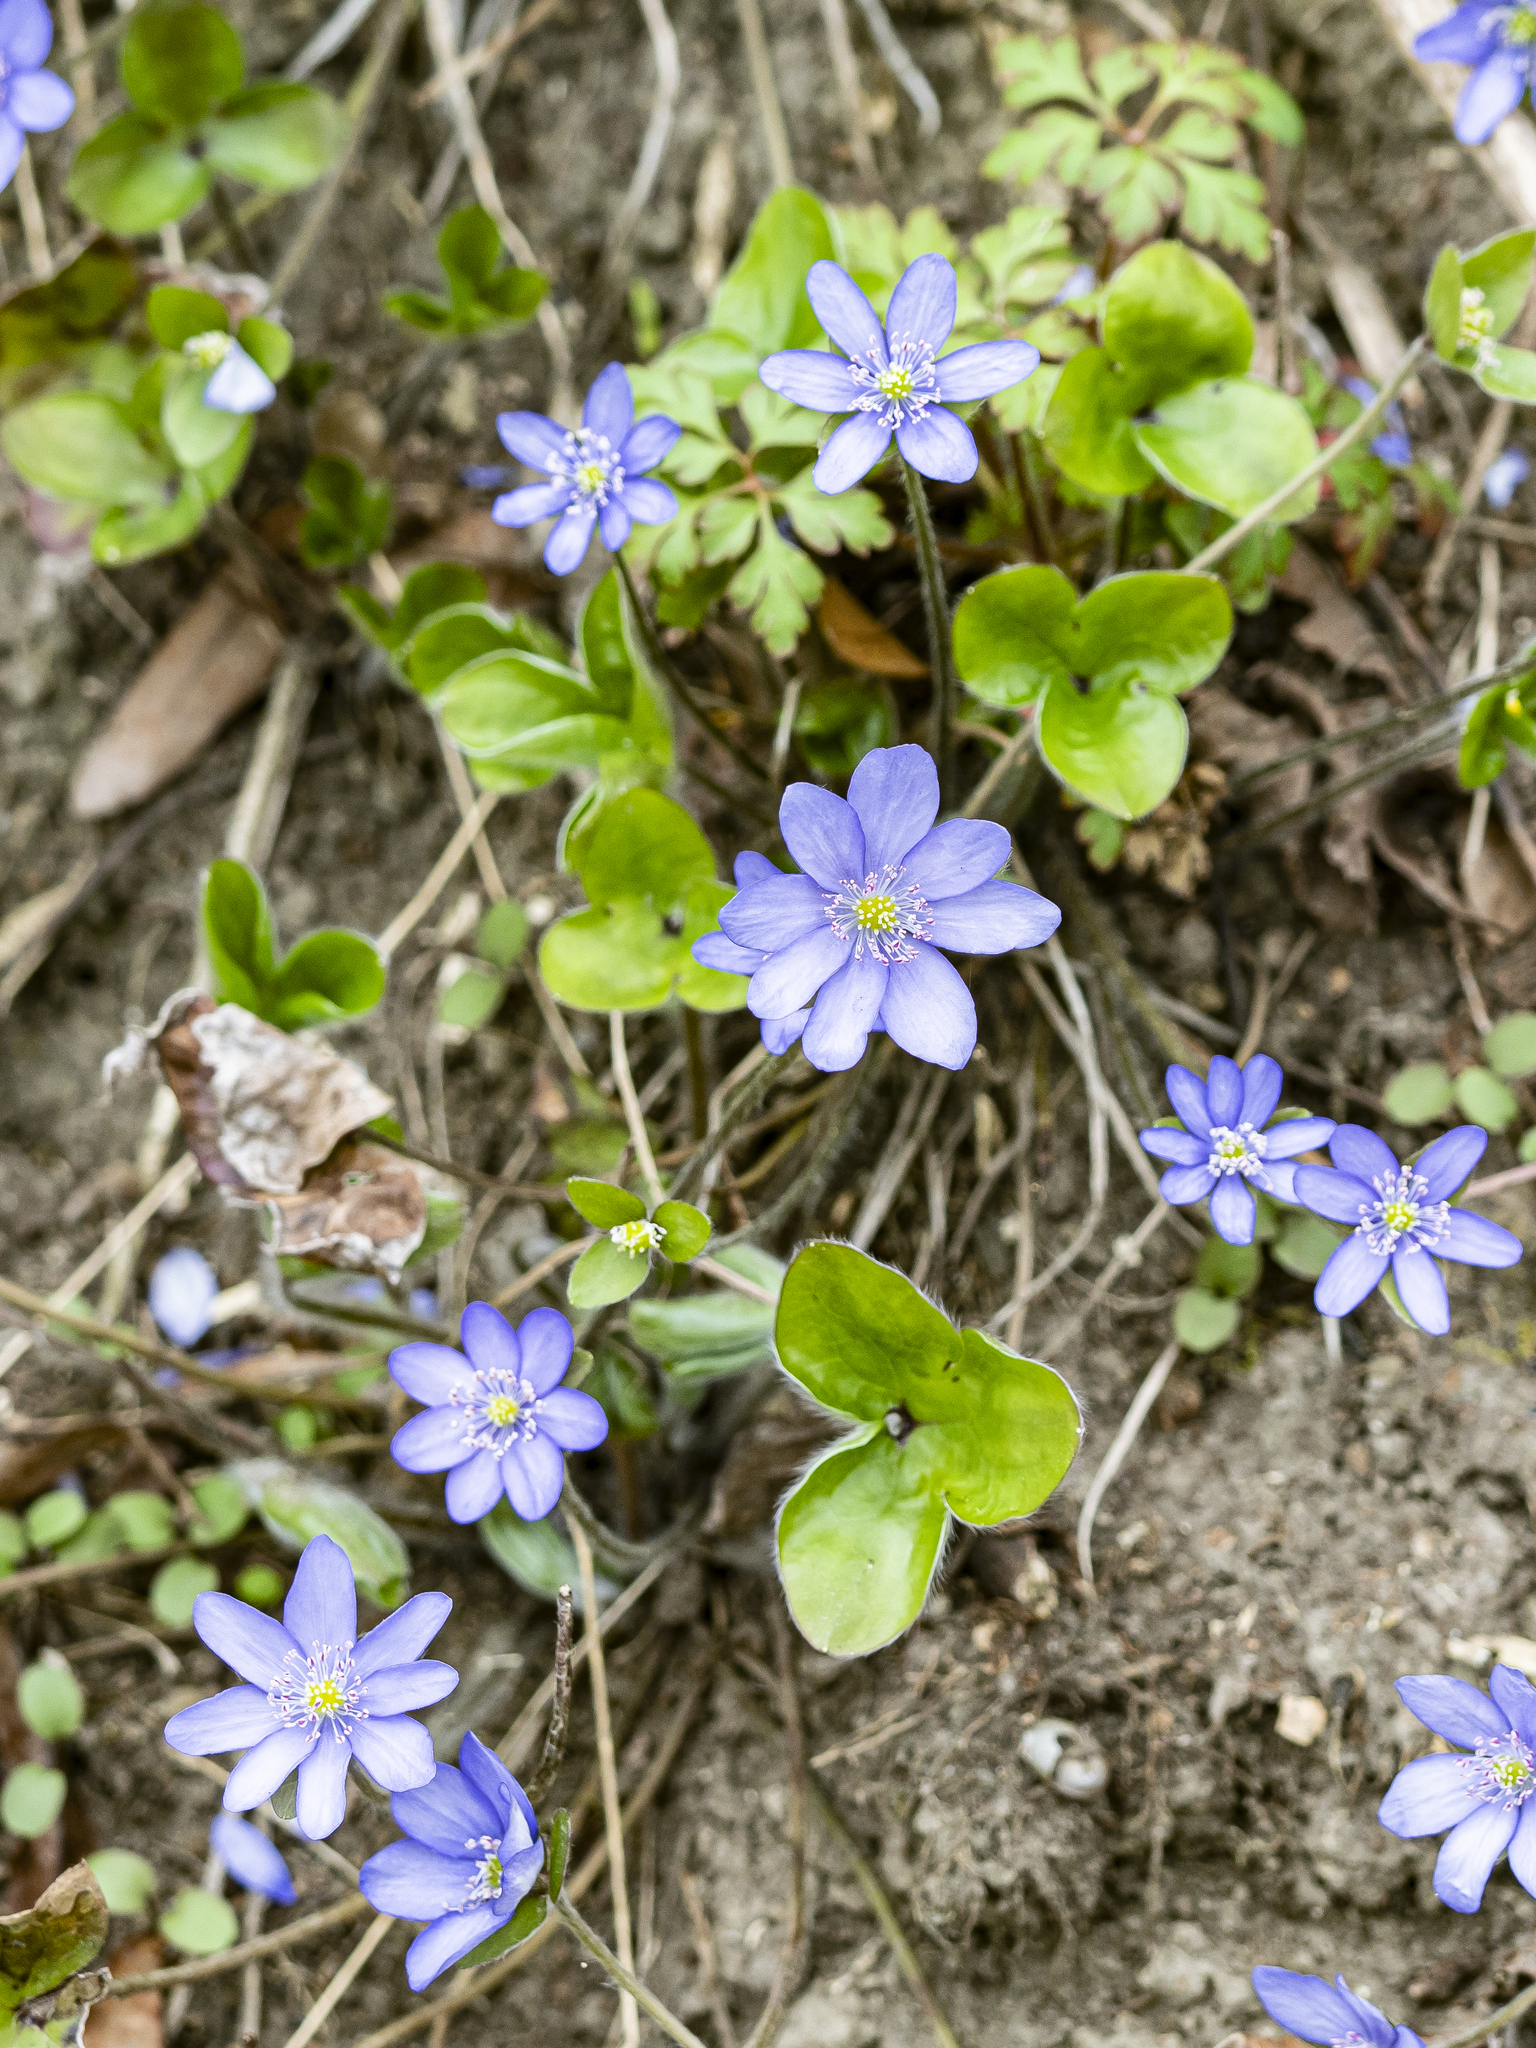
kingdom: Plantae
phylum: Tracheophyta
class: Magnoliopsida
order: Ranunculales
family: Ranunculaceae
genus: Hepatica
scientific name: Hepatica nobilis
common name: Liverleaf
